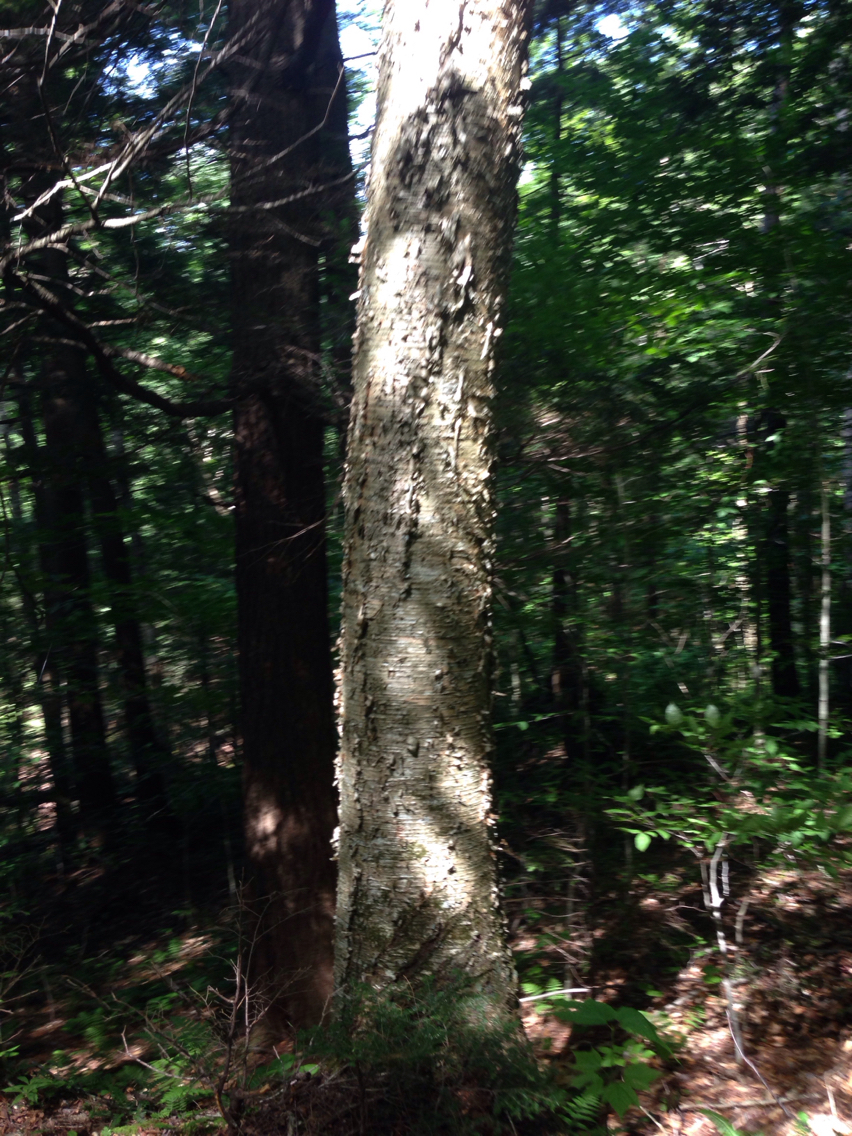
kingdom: Plantae
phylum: Tracheophyta
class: Magnoliopsida
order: Fagales
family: Betulaceae
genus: Betula
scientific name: Betula alleghaniensis
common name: Yellow birch
